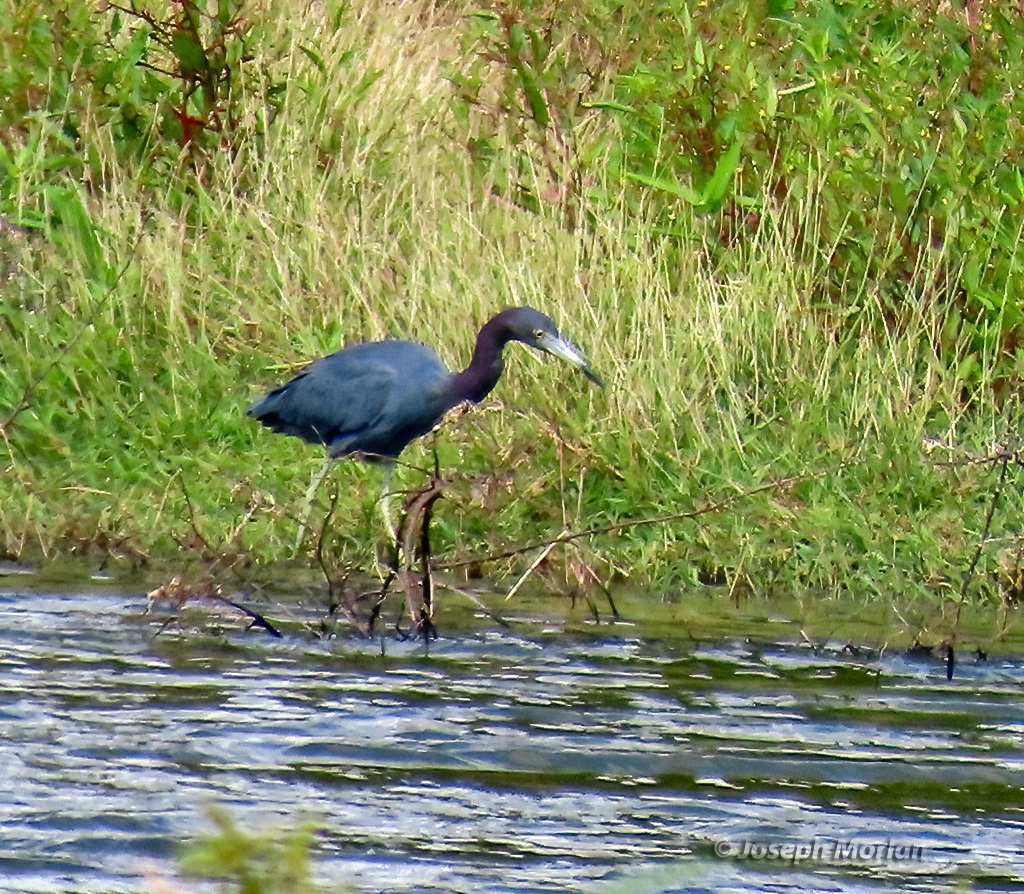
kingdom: Animalia
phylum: Chordata
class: Aves
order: Pelecaniformes
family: Ardeidae
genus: Egretta
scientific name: Egretta caerulea
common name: Little blue heron
